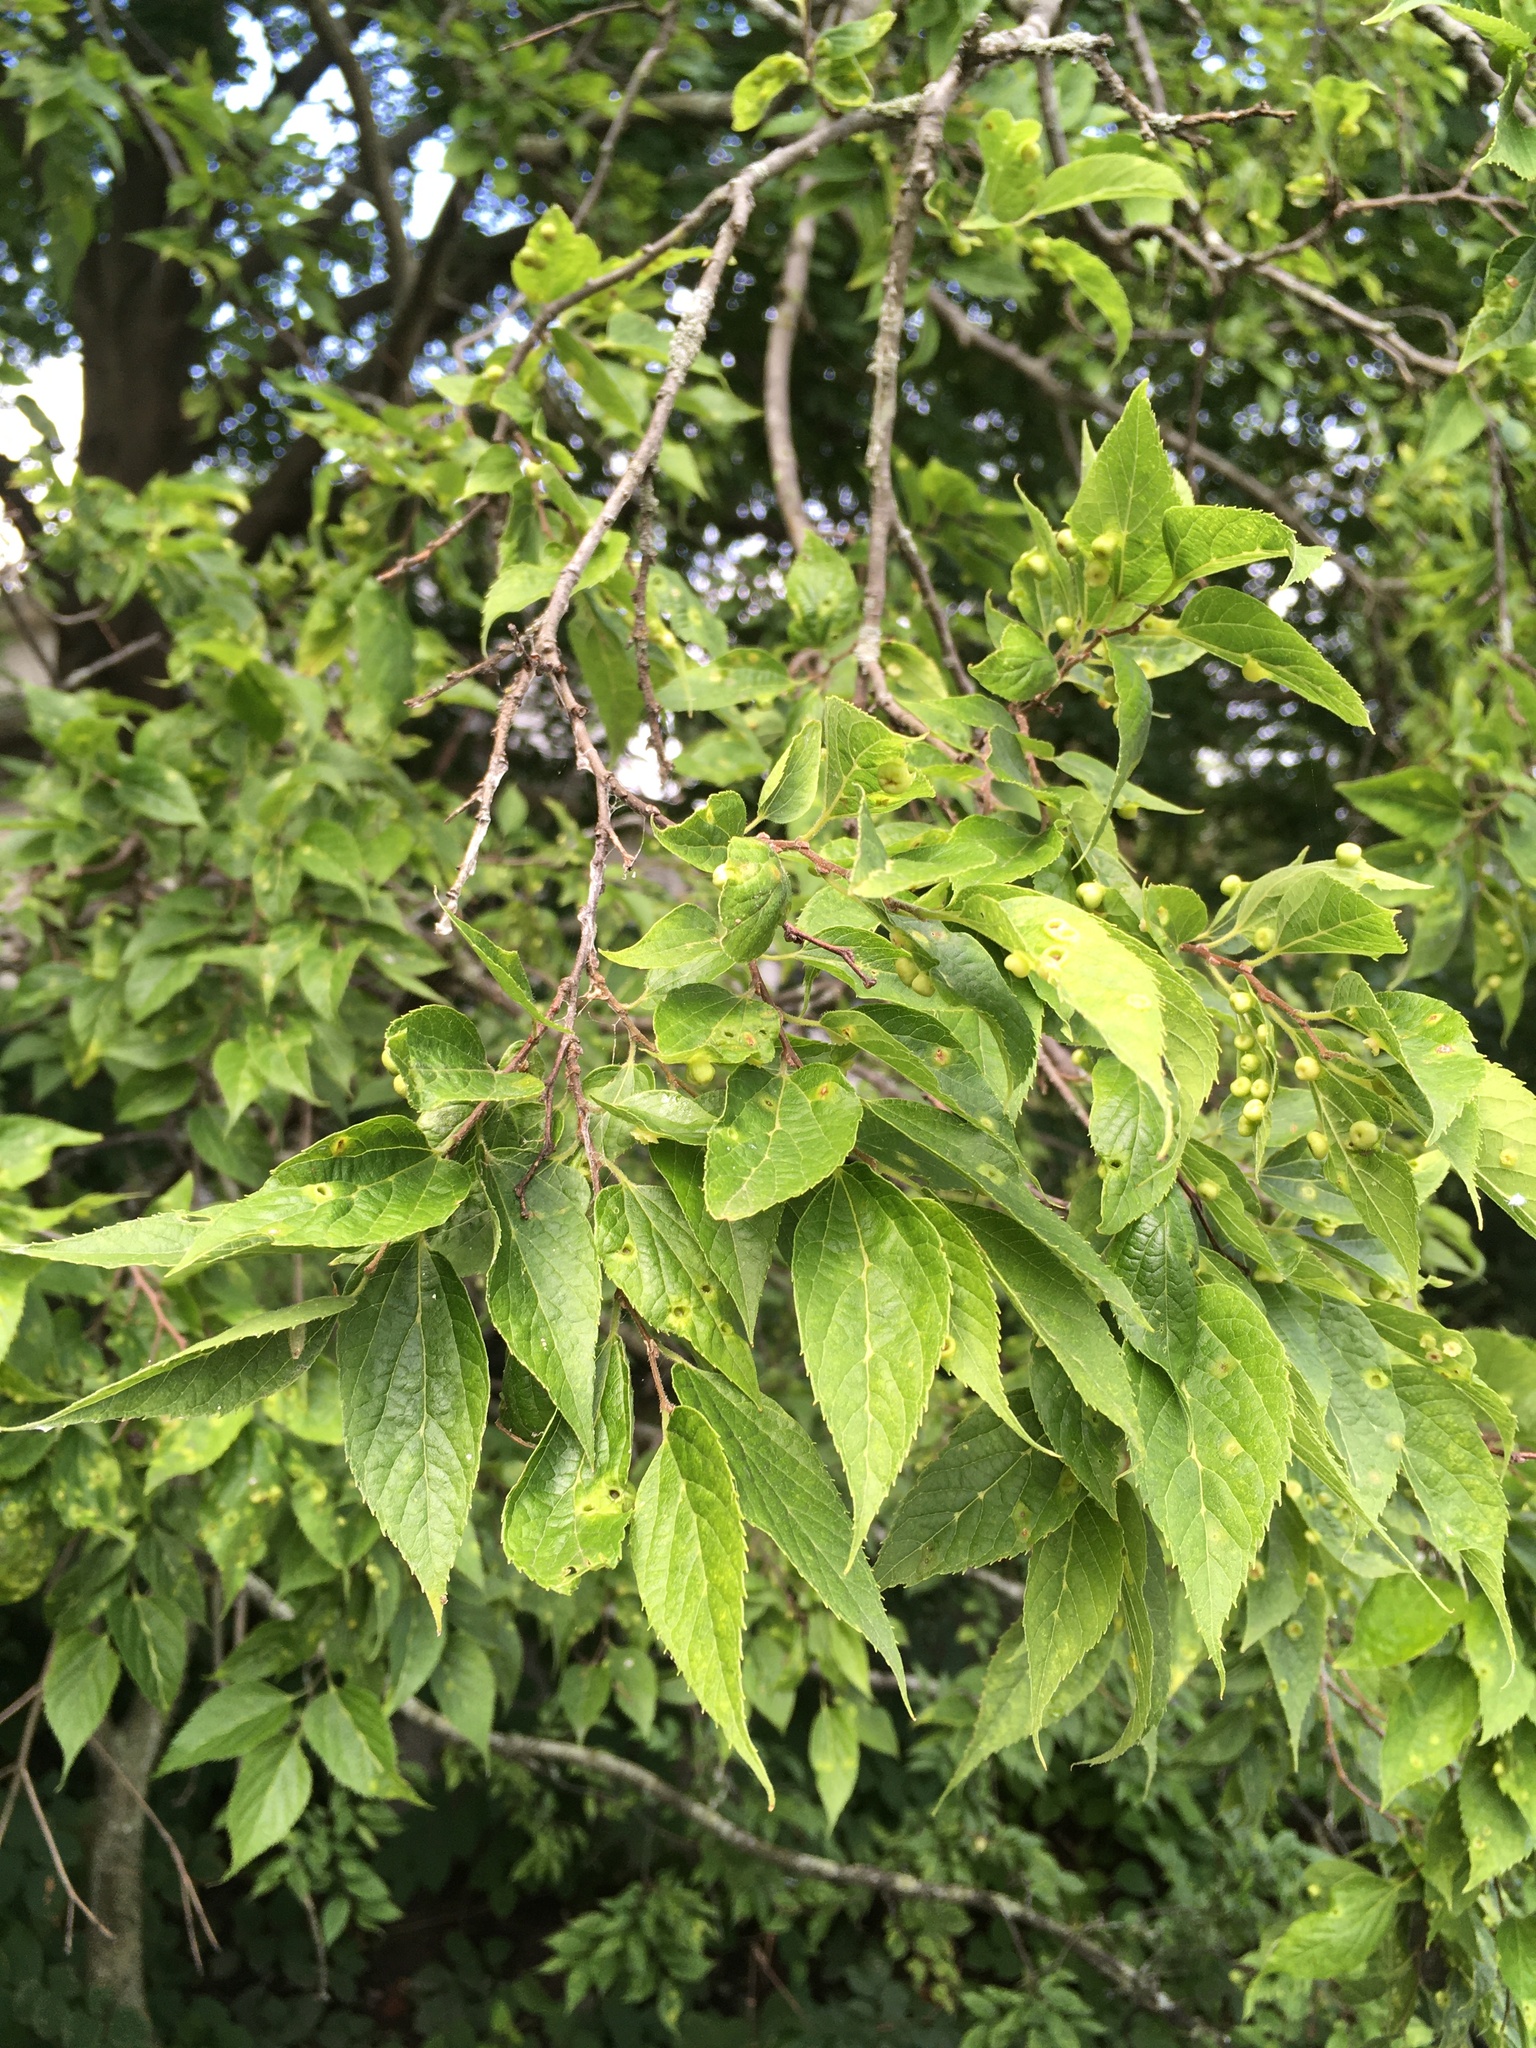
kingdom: Plantae
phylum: Tracheophyta
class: Magnoliopsida
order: Rosales
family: Cannabaceae
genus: Celtis
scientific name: Celtis occidentalis
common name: Common hackberry
